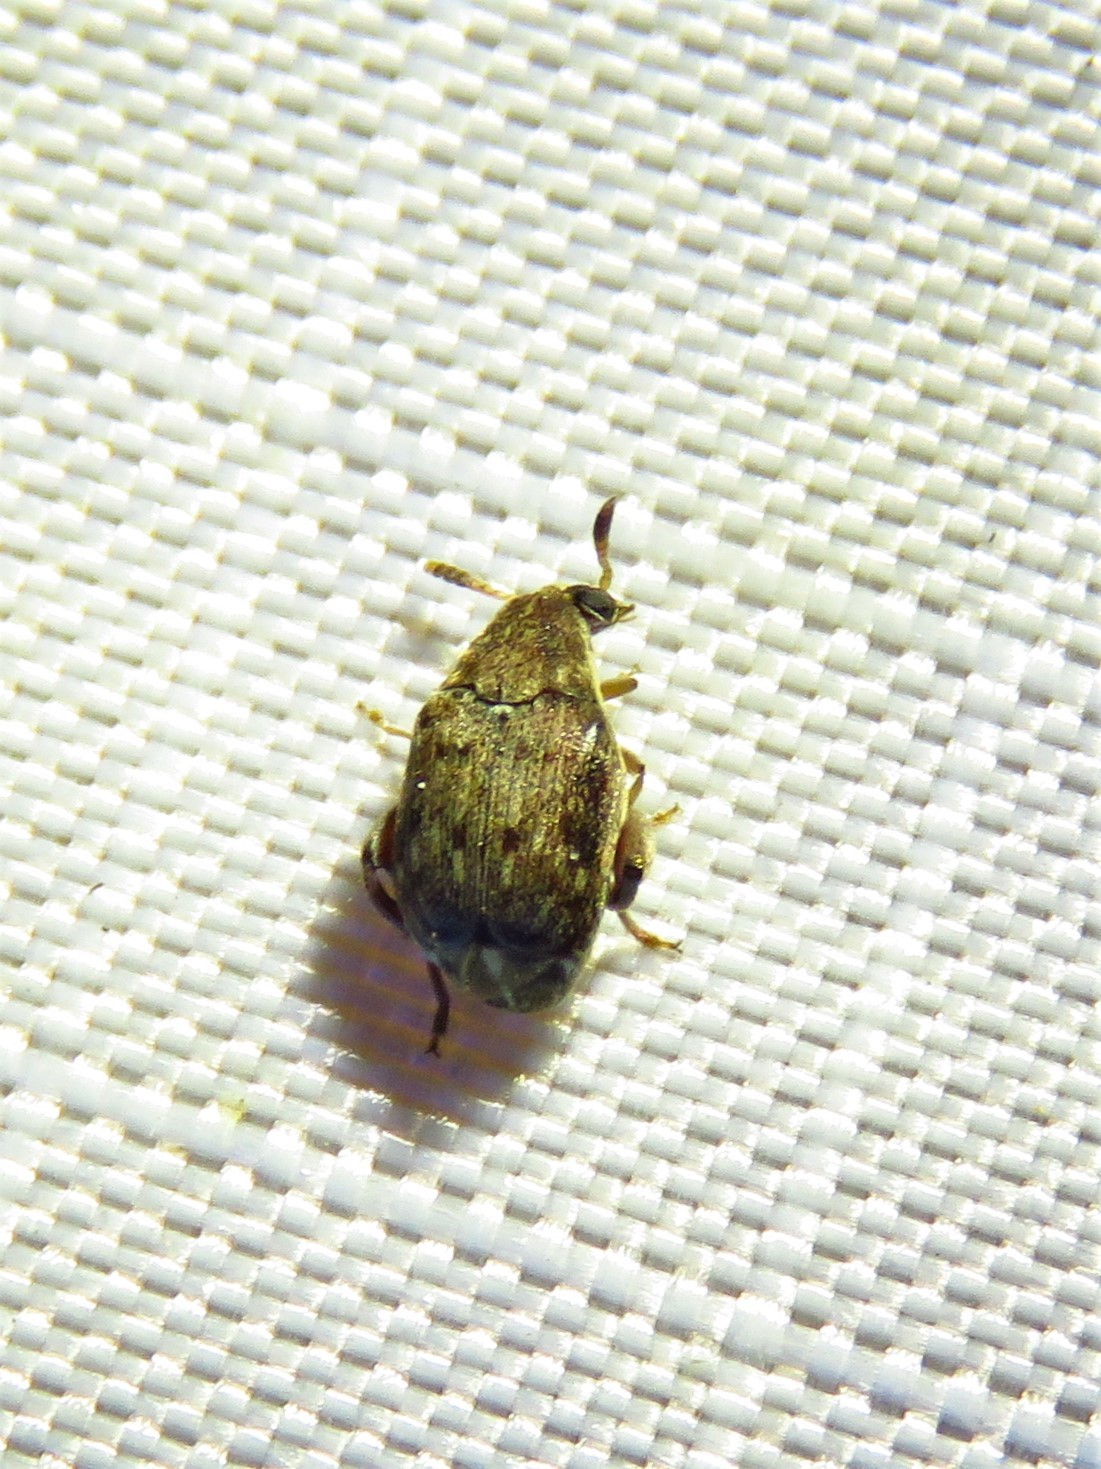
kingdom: Animalia
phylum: Arthropoda
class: Insecta
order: Coleoptera
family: Chrysomelidae
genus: Merobruchus
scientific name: Merobruchus insolitus
